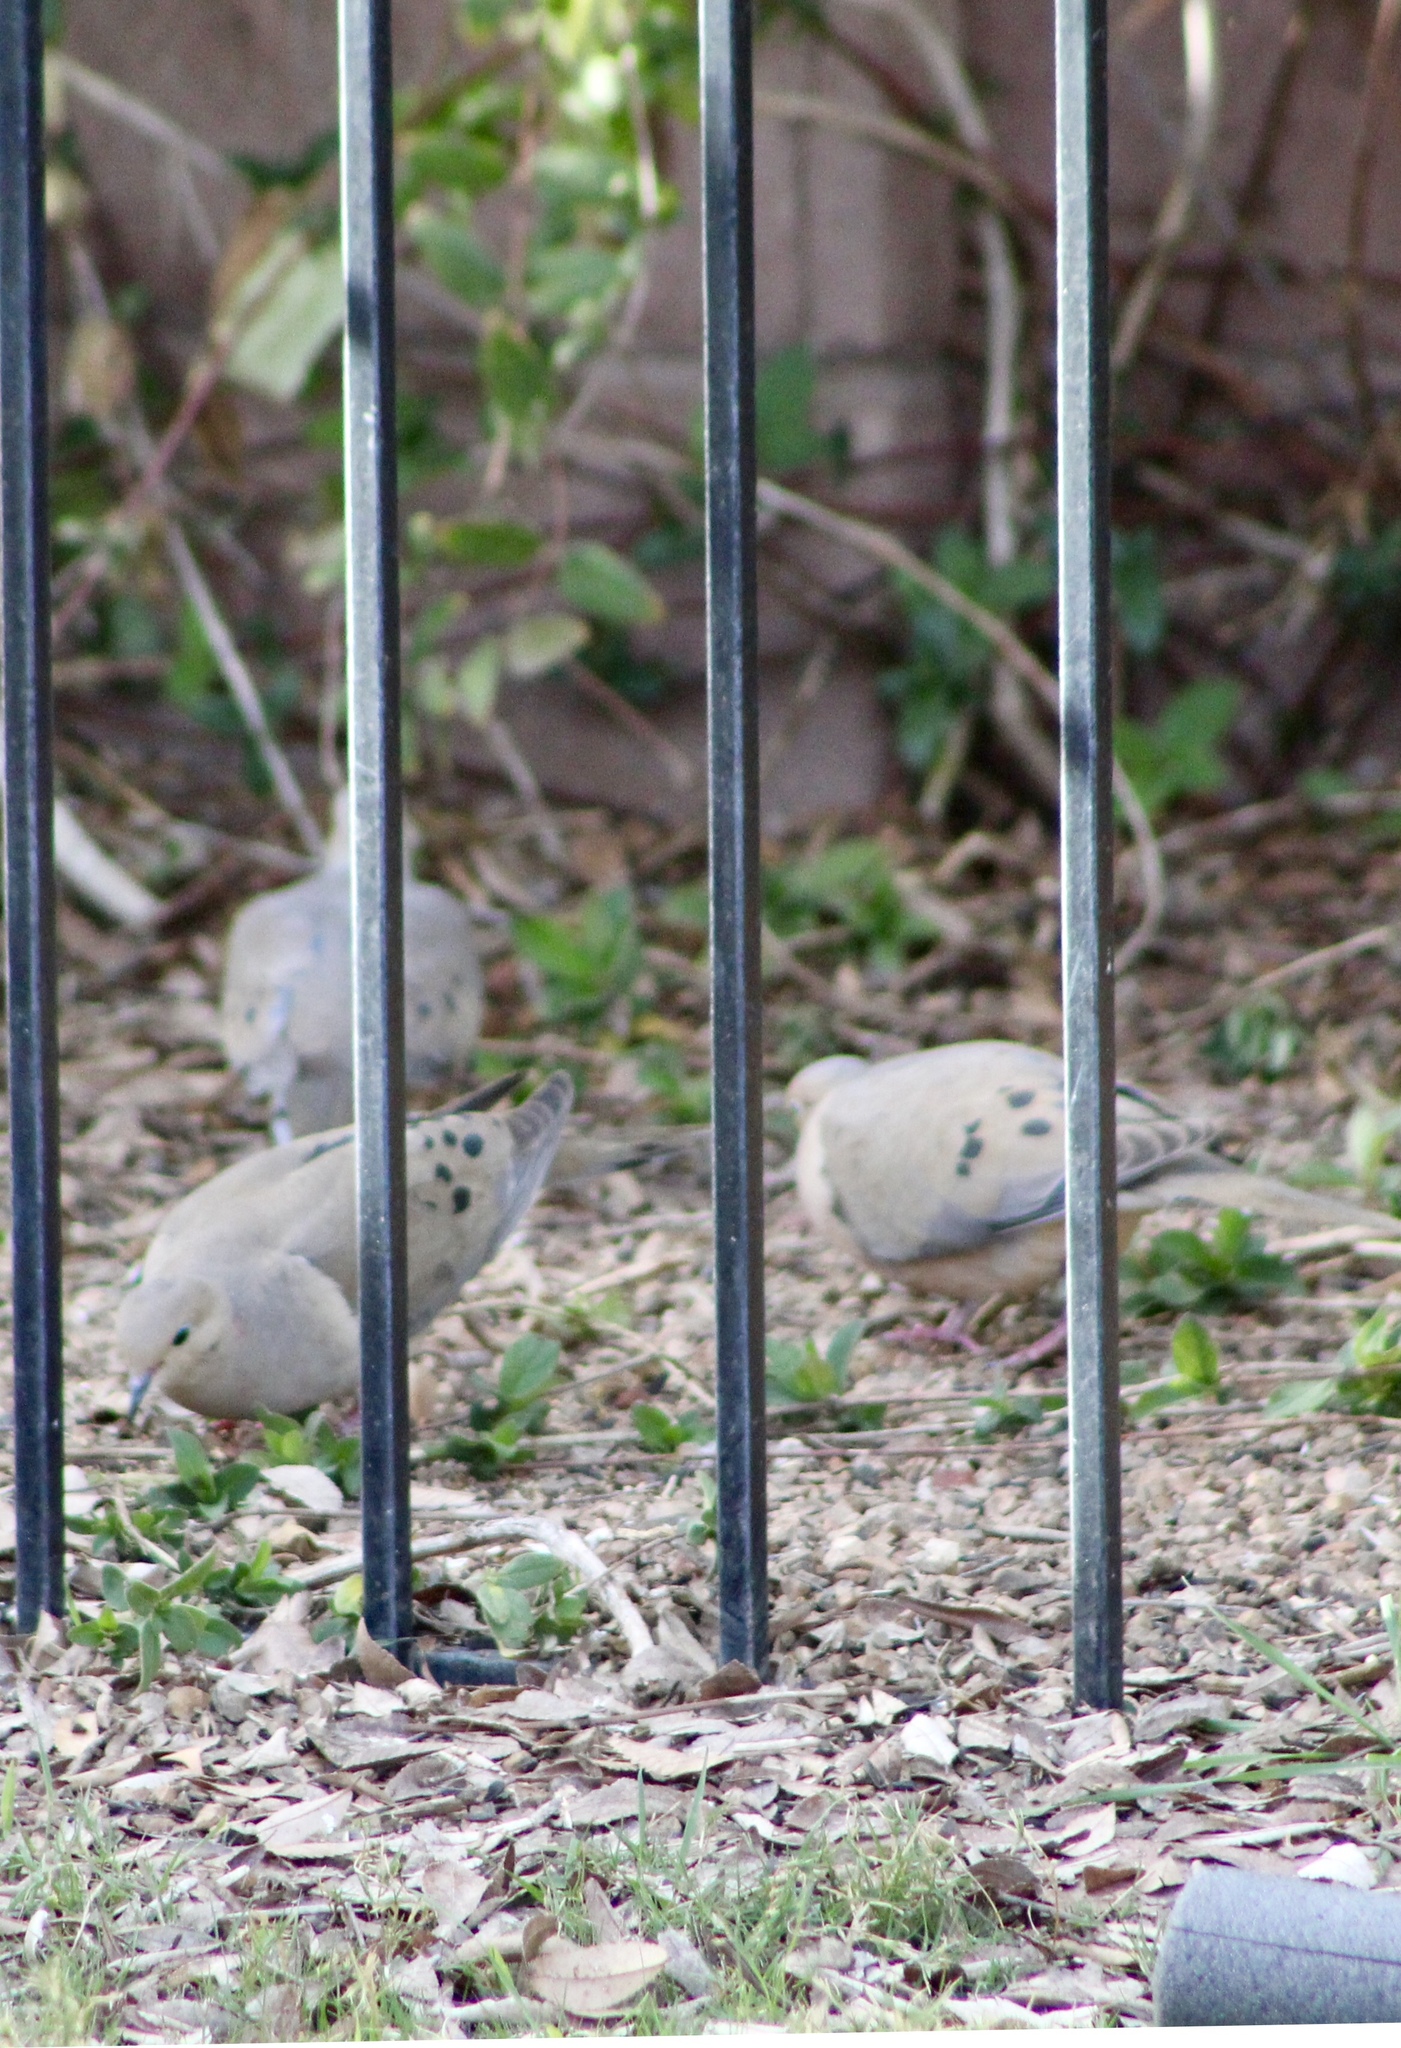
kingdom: Animalia
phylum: Chordata
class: Aves
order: Columbiformes
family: Columbidae
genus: Zenaida
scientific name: Zenaida macroura
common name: Mourning dove
